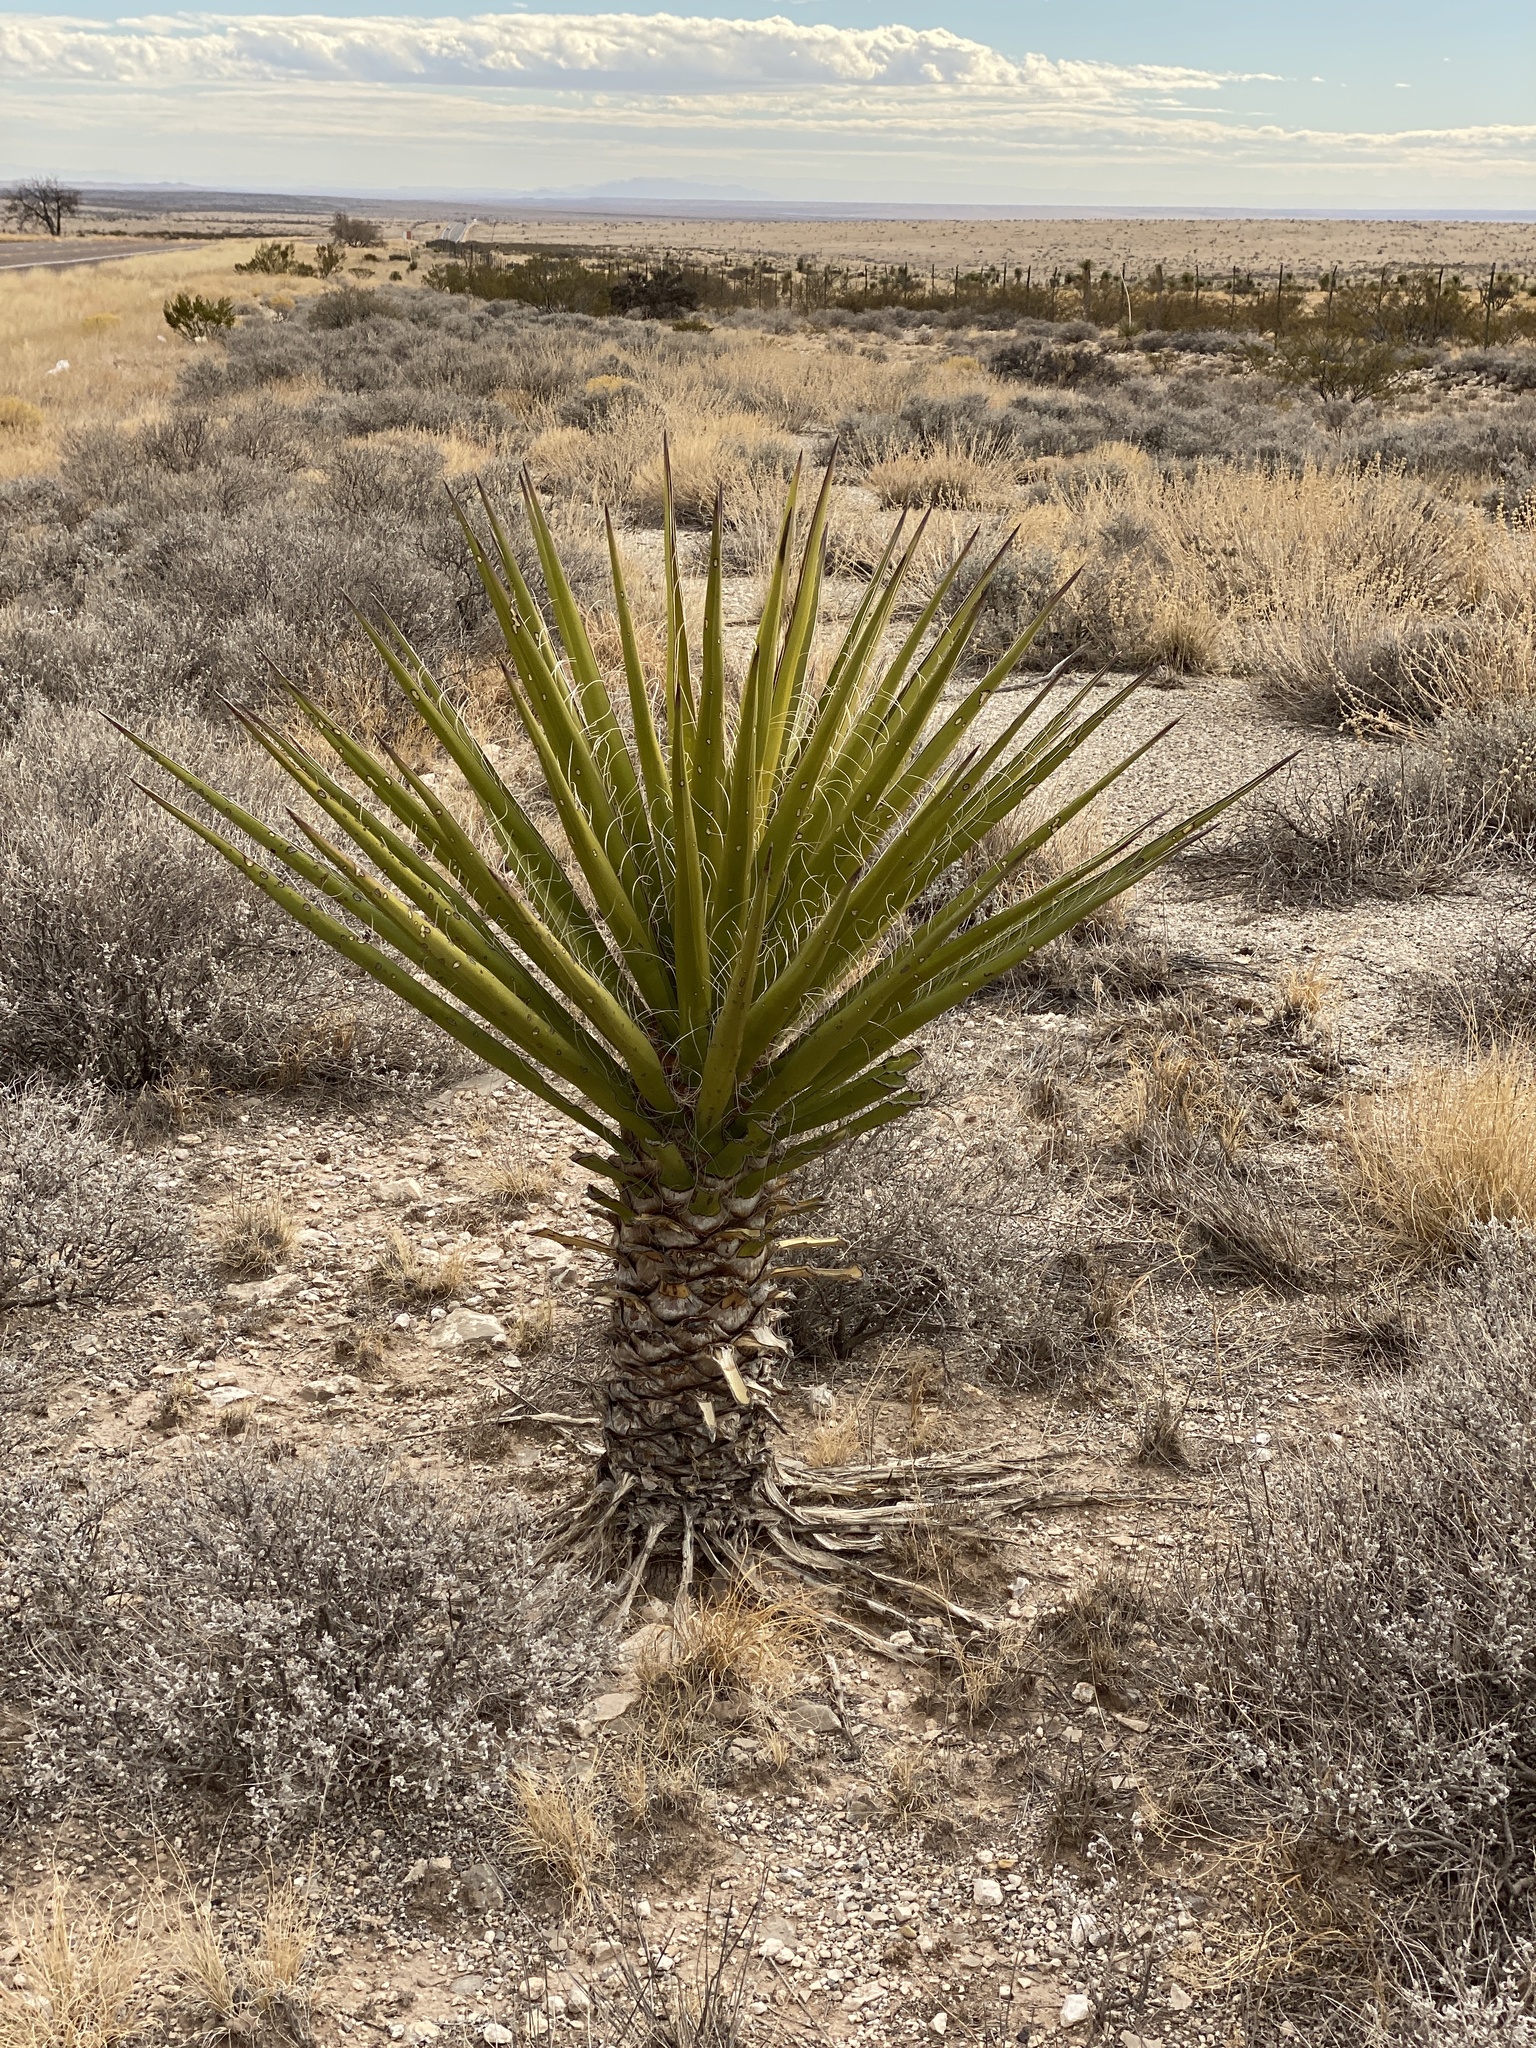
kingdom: Plantae
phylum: Tracheophyta
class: Liliopsida
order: Asparagales
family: Asparagaceae
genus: Yucca
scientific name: Yucca treculiana
